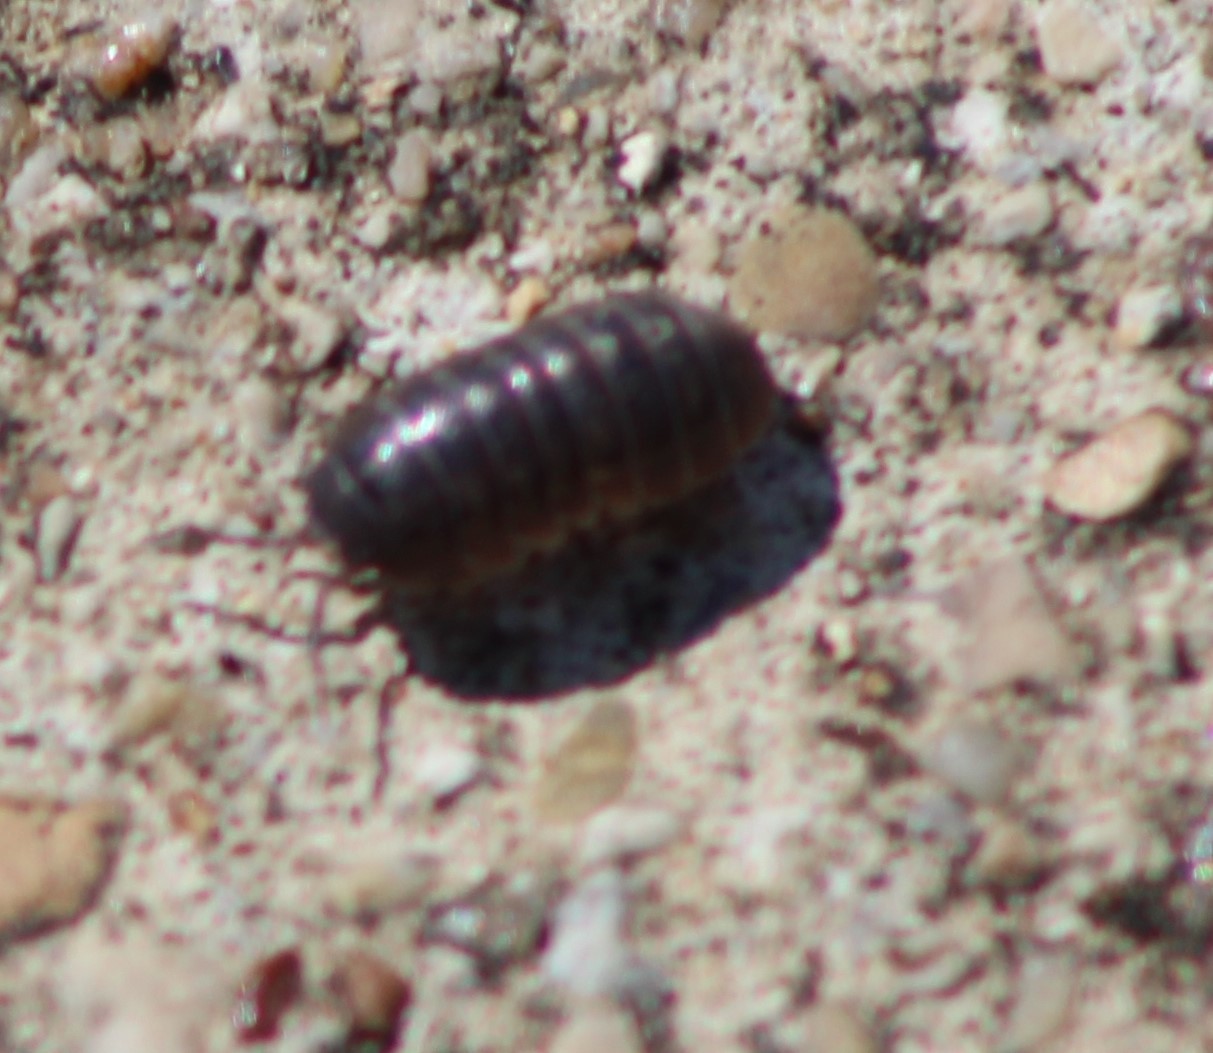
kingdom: Animalia
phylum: Arthropoda
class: Malacostraca
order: Isopoda
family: Armadillidiidae
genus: Armadillidium
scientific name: Armadillidium vulgare
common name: Common pill woodlouse
